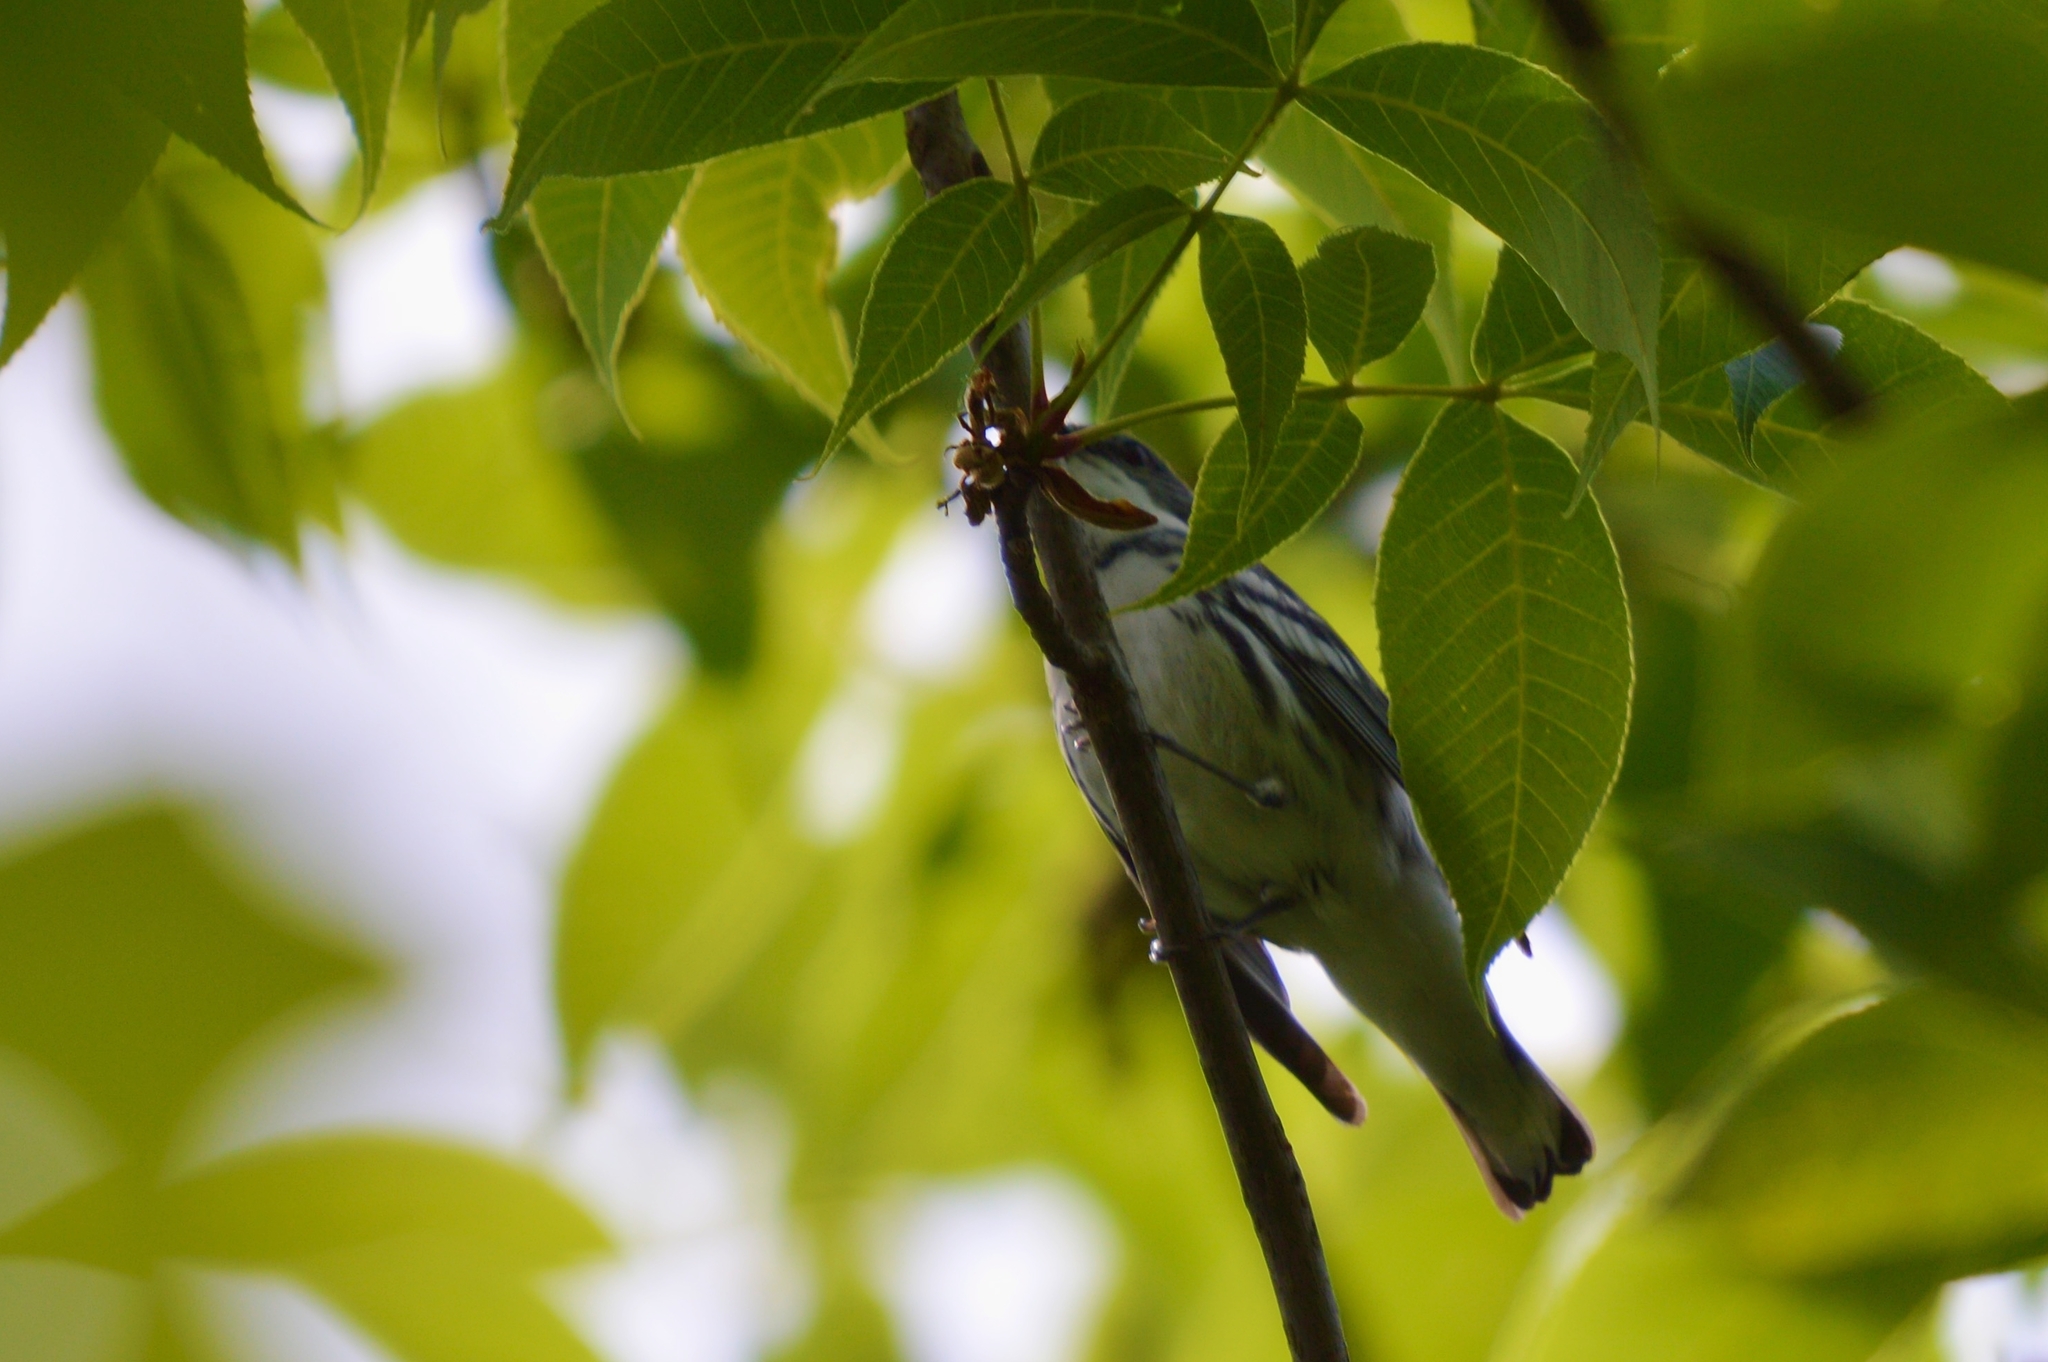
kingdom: Animalia
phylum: Chordata
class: Aves
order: Passeriformes
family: Parulidae
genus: Setophaga
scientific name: Setophaga cerulea
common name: Cerulean warbler
